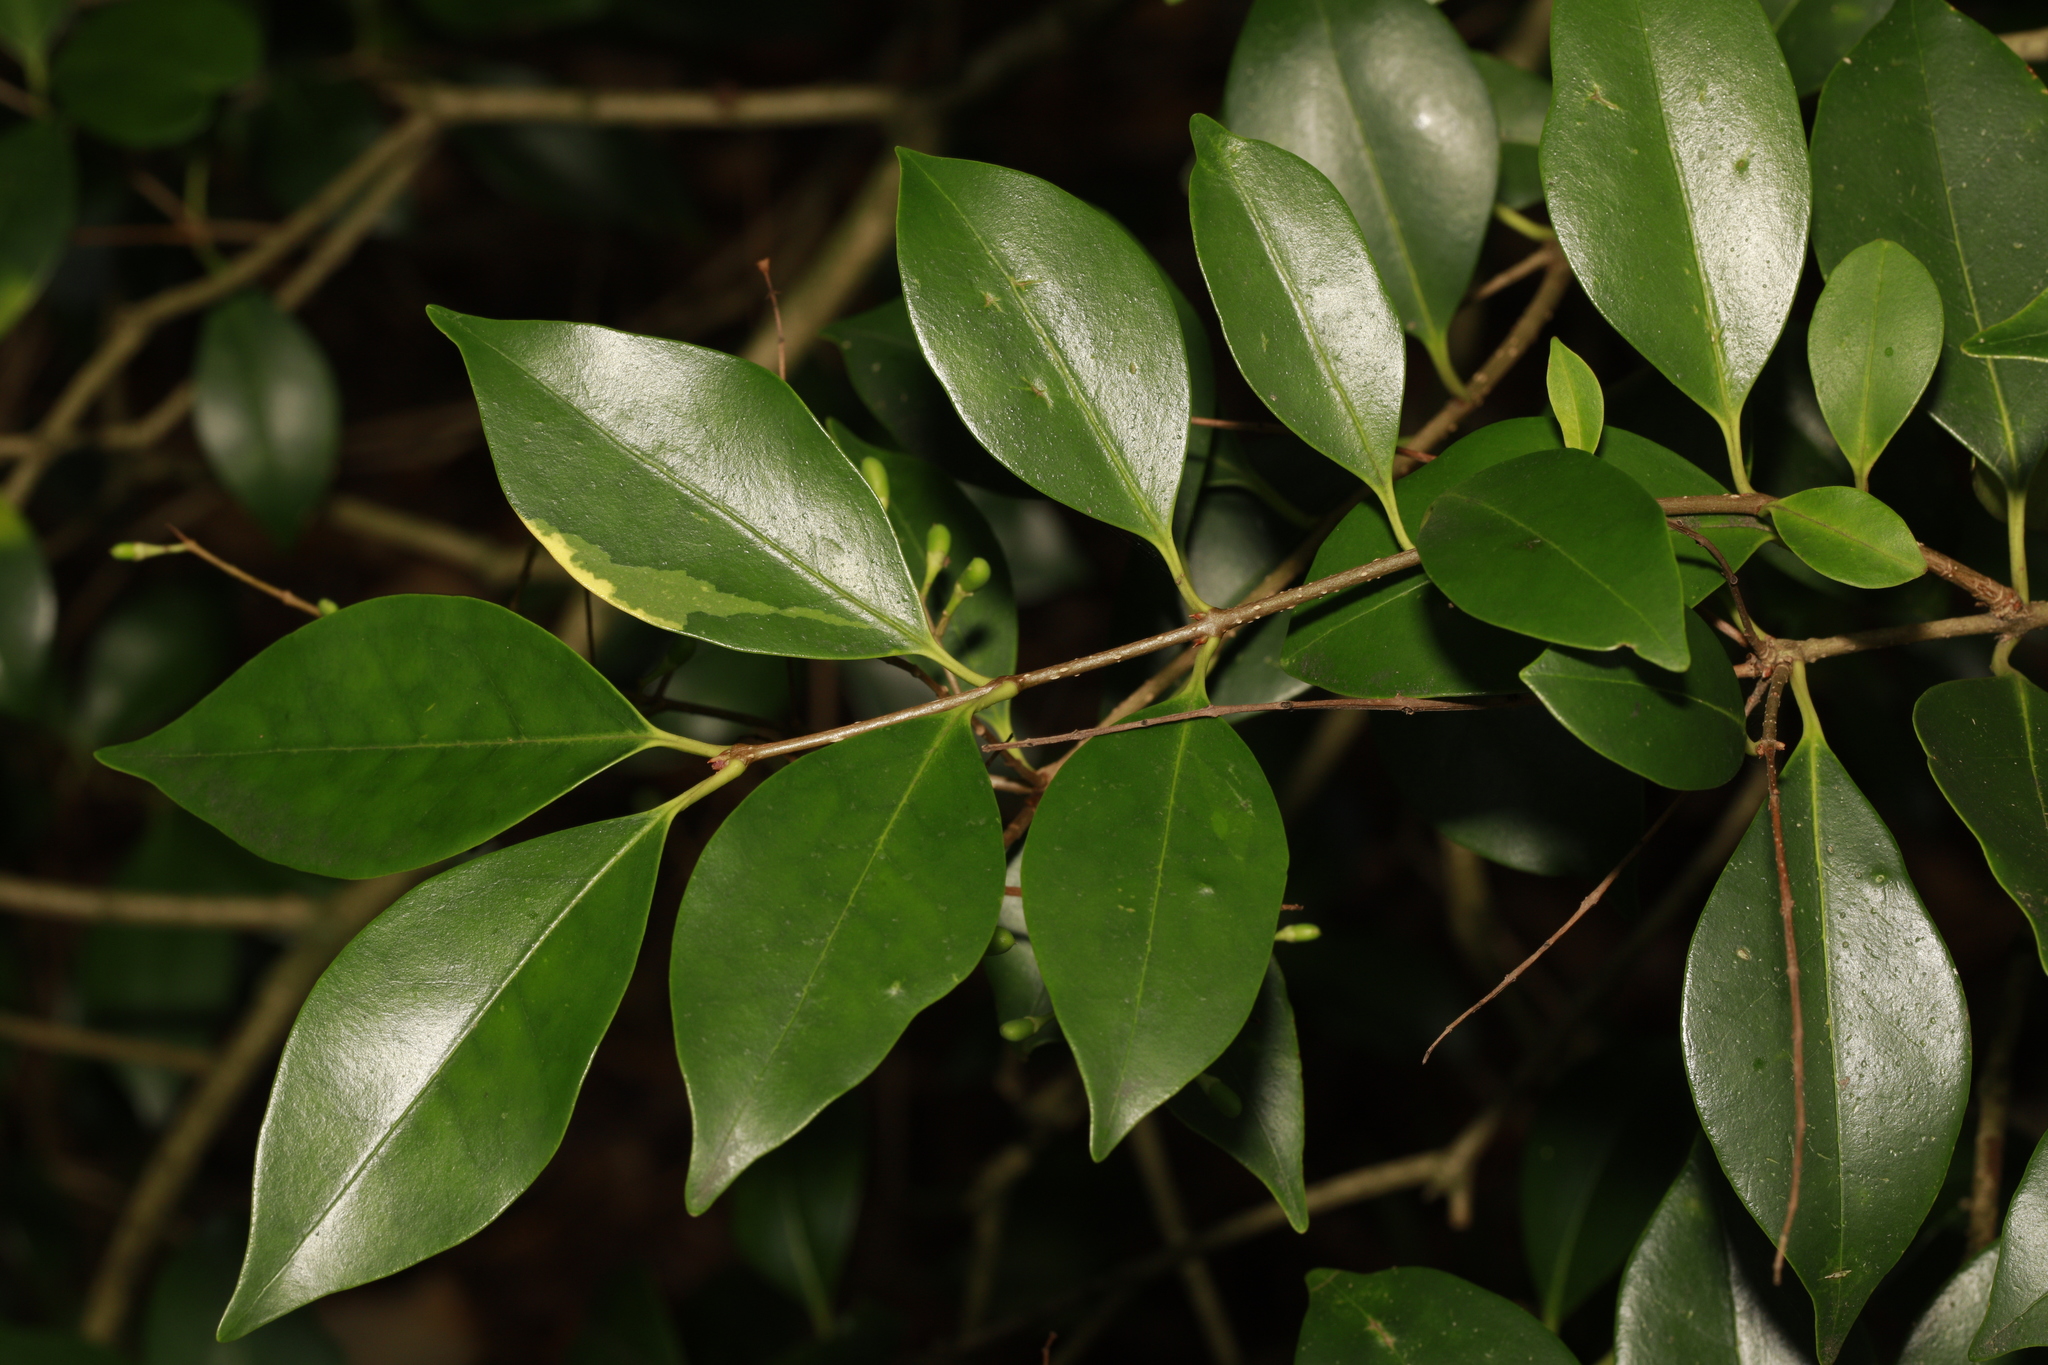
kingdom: Plantae
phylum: Tracheophyta
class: Magnoliopsida
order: Lamiales
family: Oleaceae
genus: Ligustrum
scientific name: Ligustrum ovalifolium
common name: California privet
